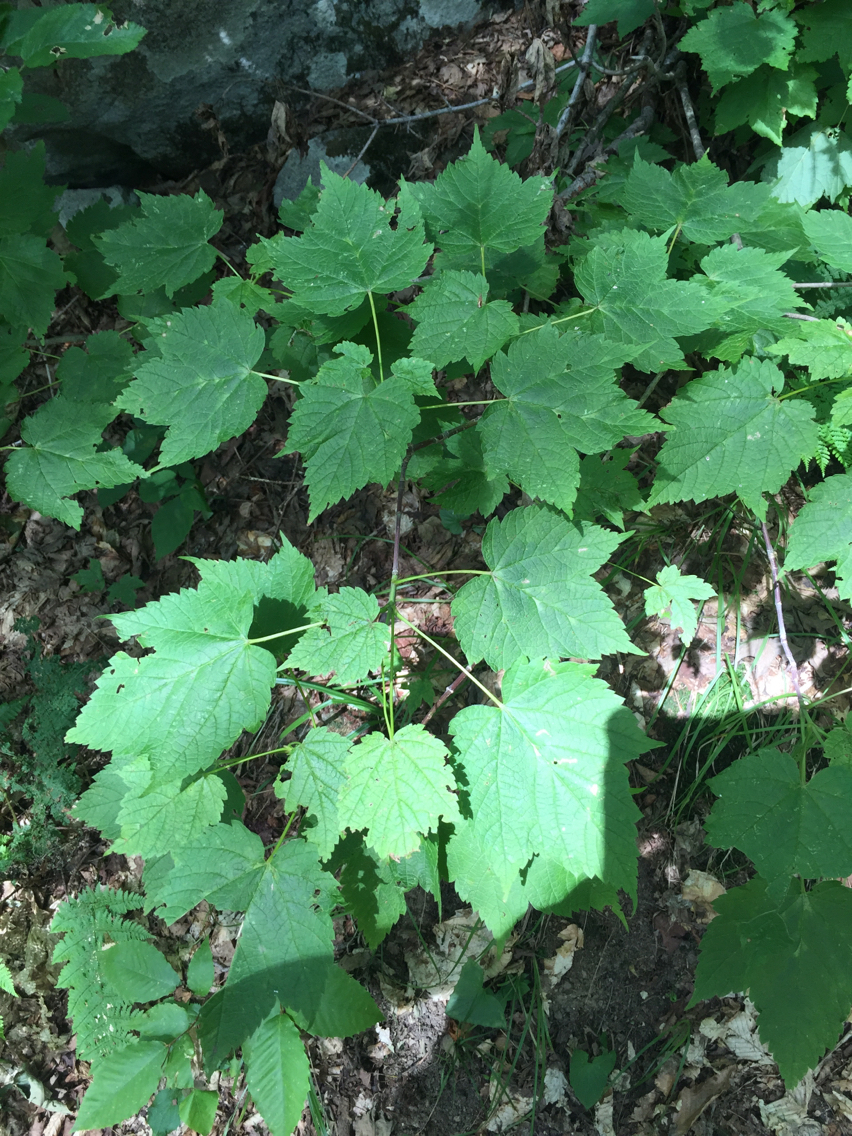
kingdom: Plantae
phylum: Tracheophyta
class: Magnoliopsida
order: Sapindales
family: Sapindaceae
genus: Acer
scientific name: Acer spicatum
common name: Mountain maple
